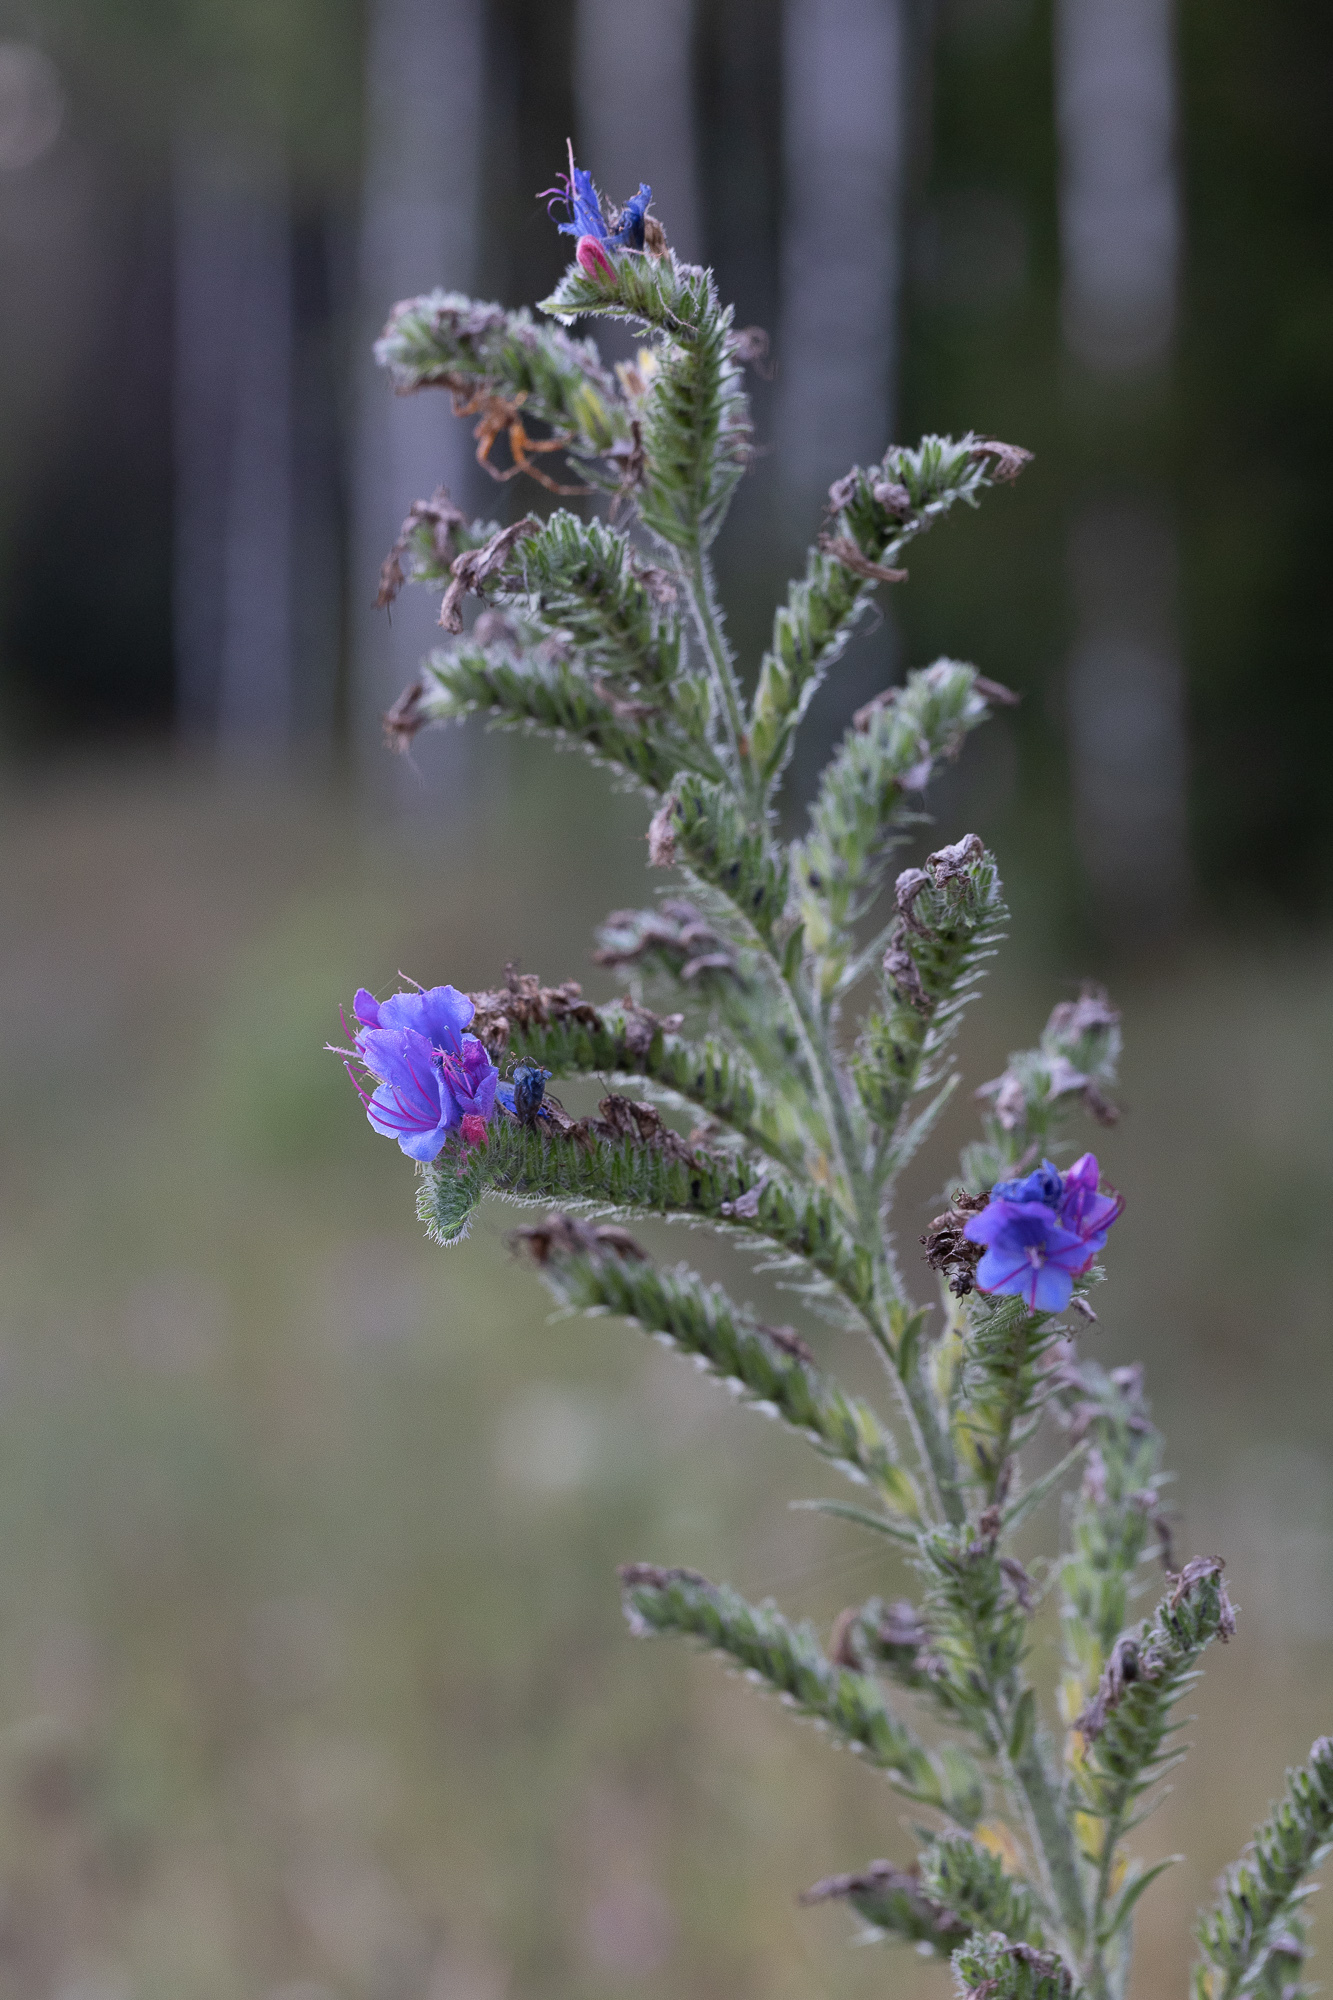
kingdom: Plantae
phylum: Tracheophyta
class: Magnoliopsida
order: Boraginales
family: Boraginaceae
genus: Echium
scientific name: Echium vulgare
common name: Common viper's bugloss
